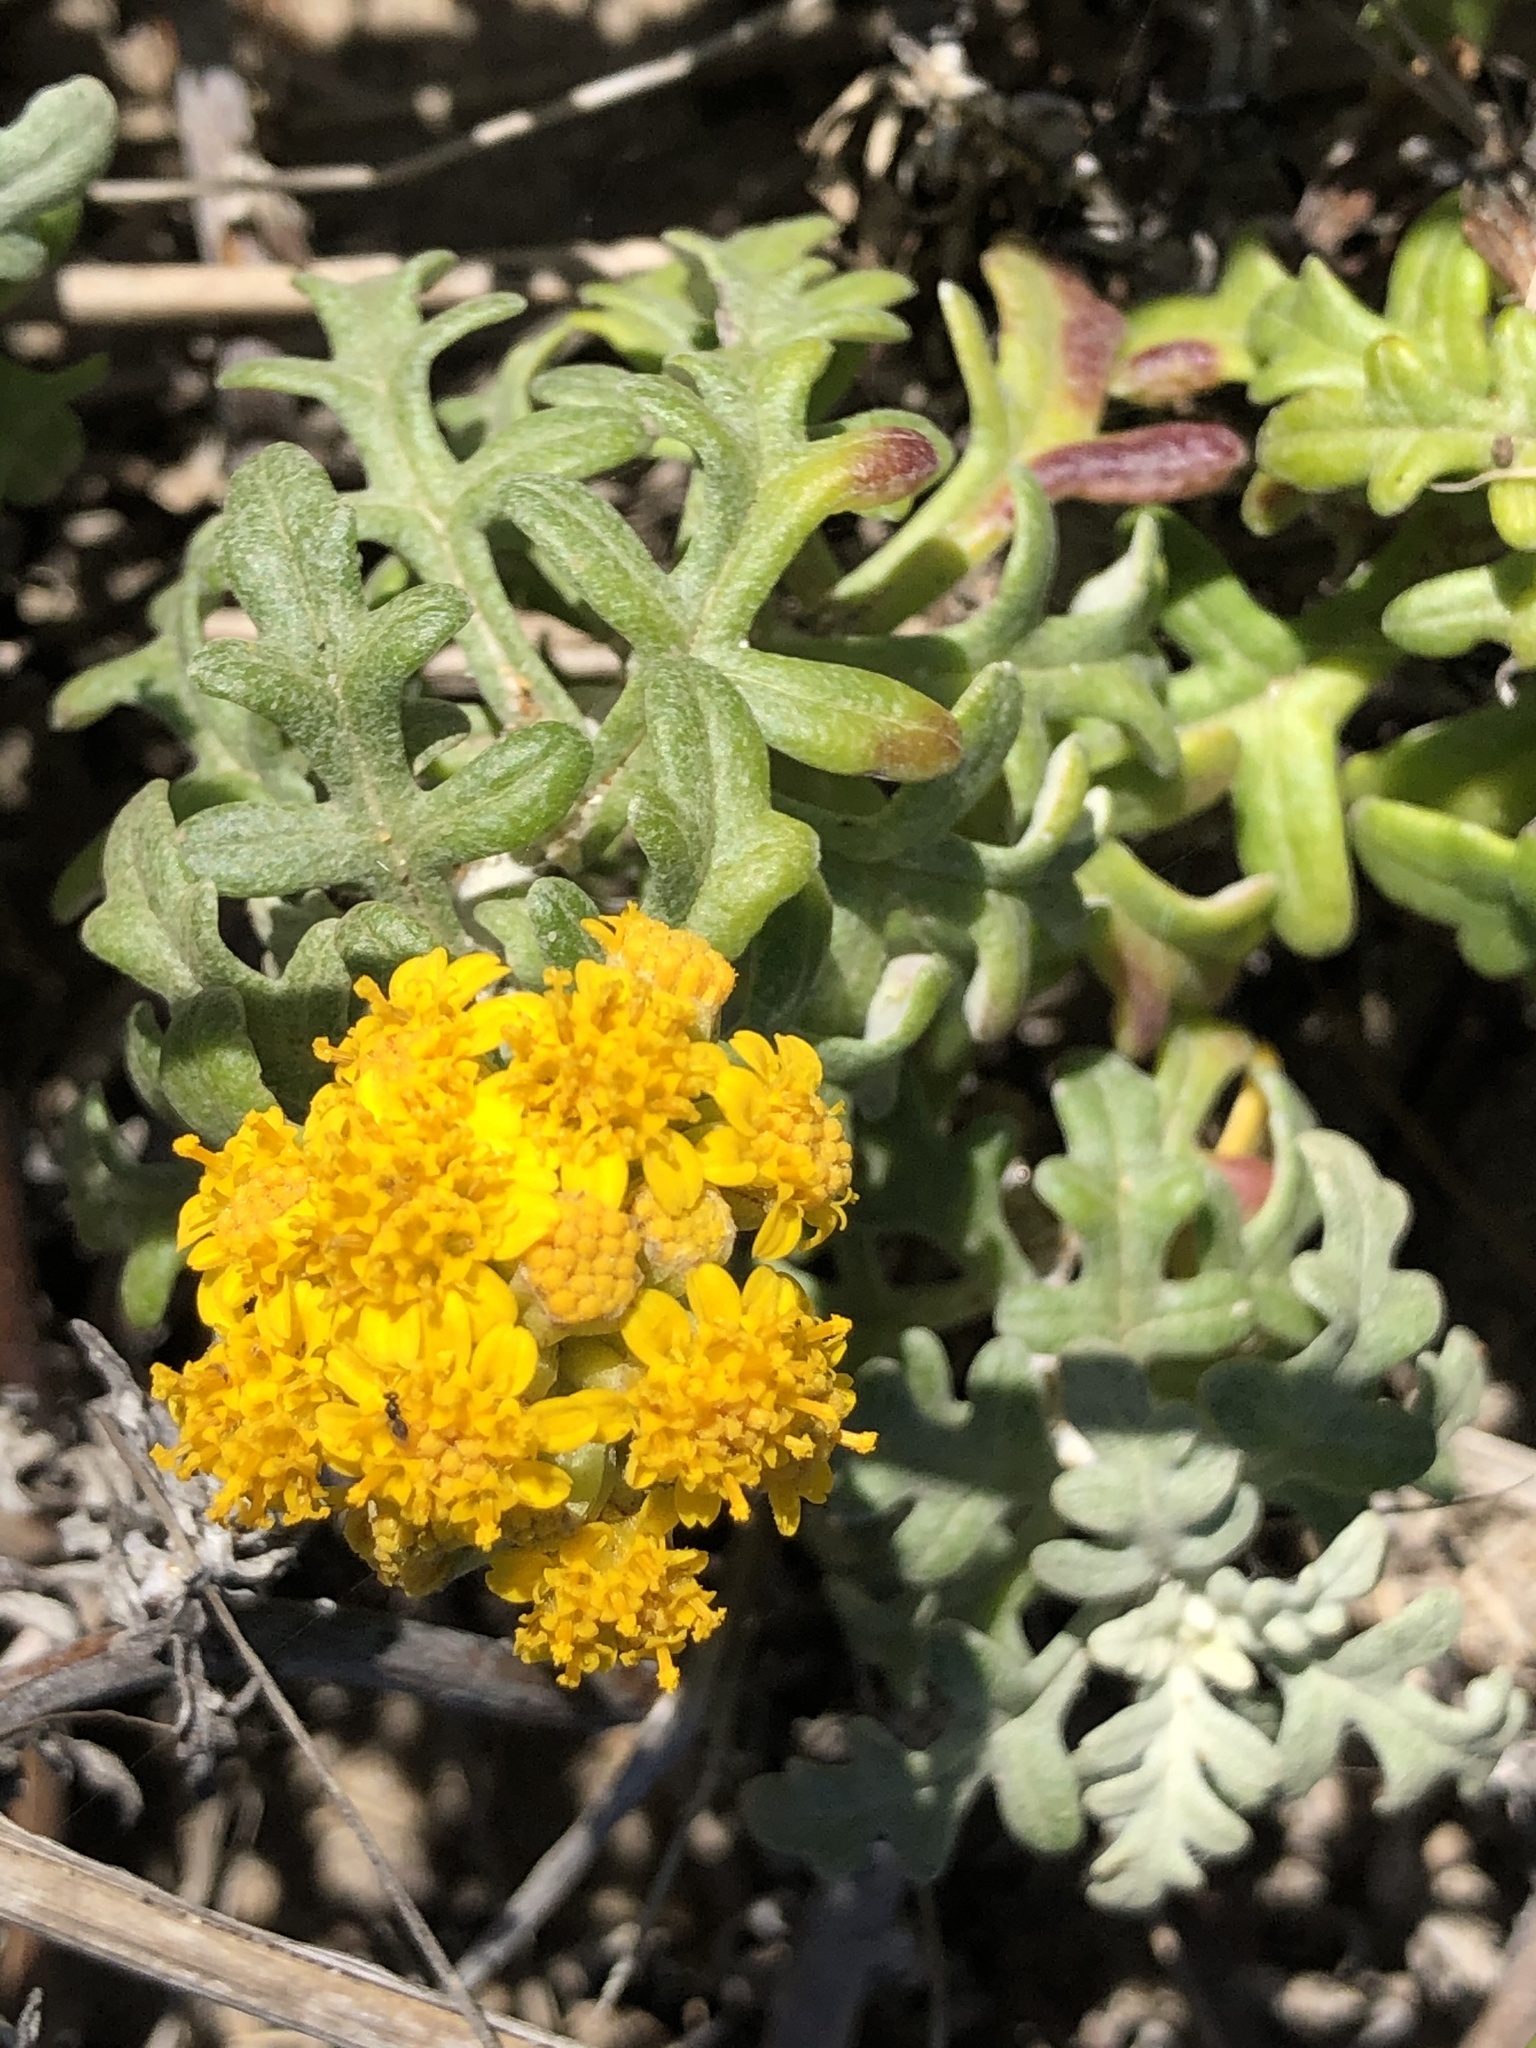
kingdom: Plantae
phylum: Tracheophyta
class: Magnoliopsida
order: Asterales
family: Asteraceae
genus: Eriophyllum
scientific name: Eriophyllum staechadifolium
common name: Lizardtail
